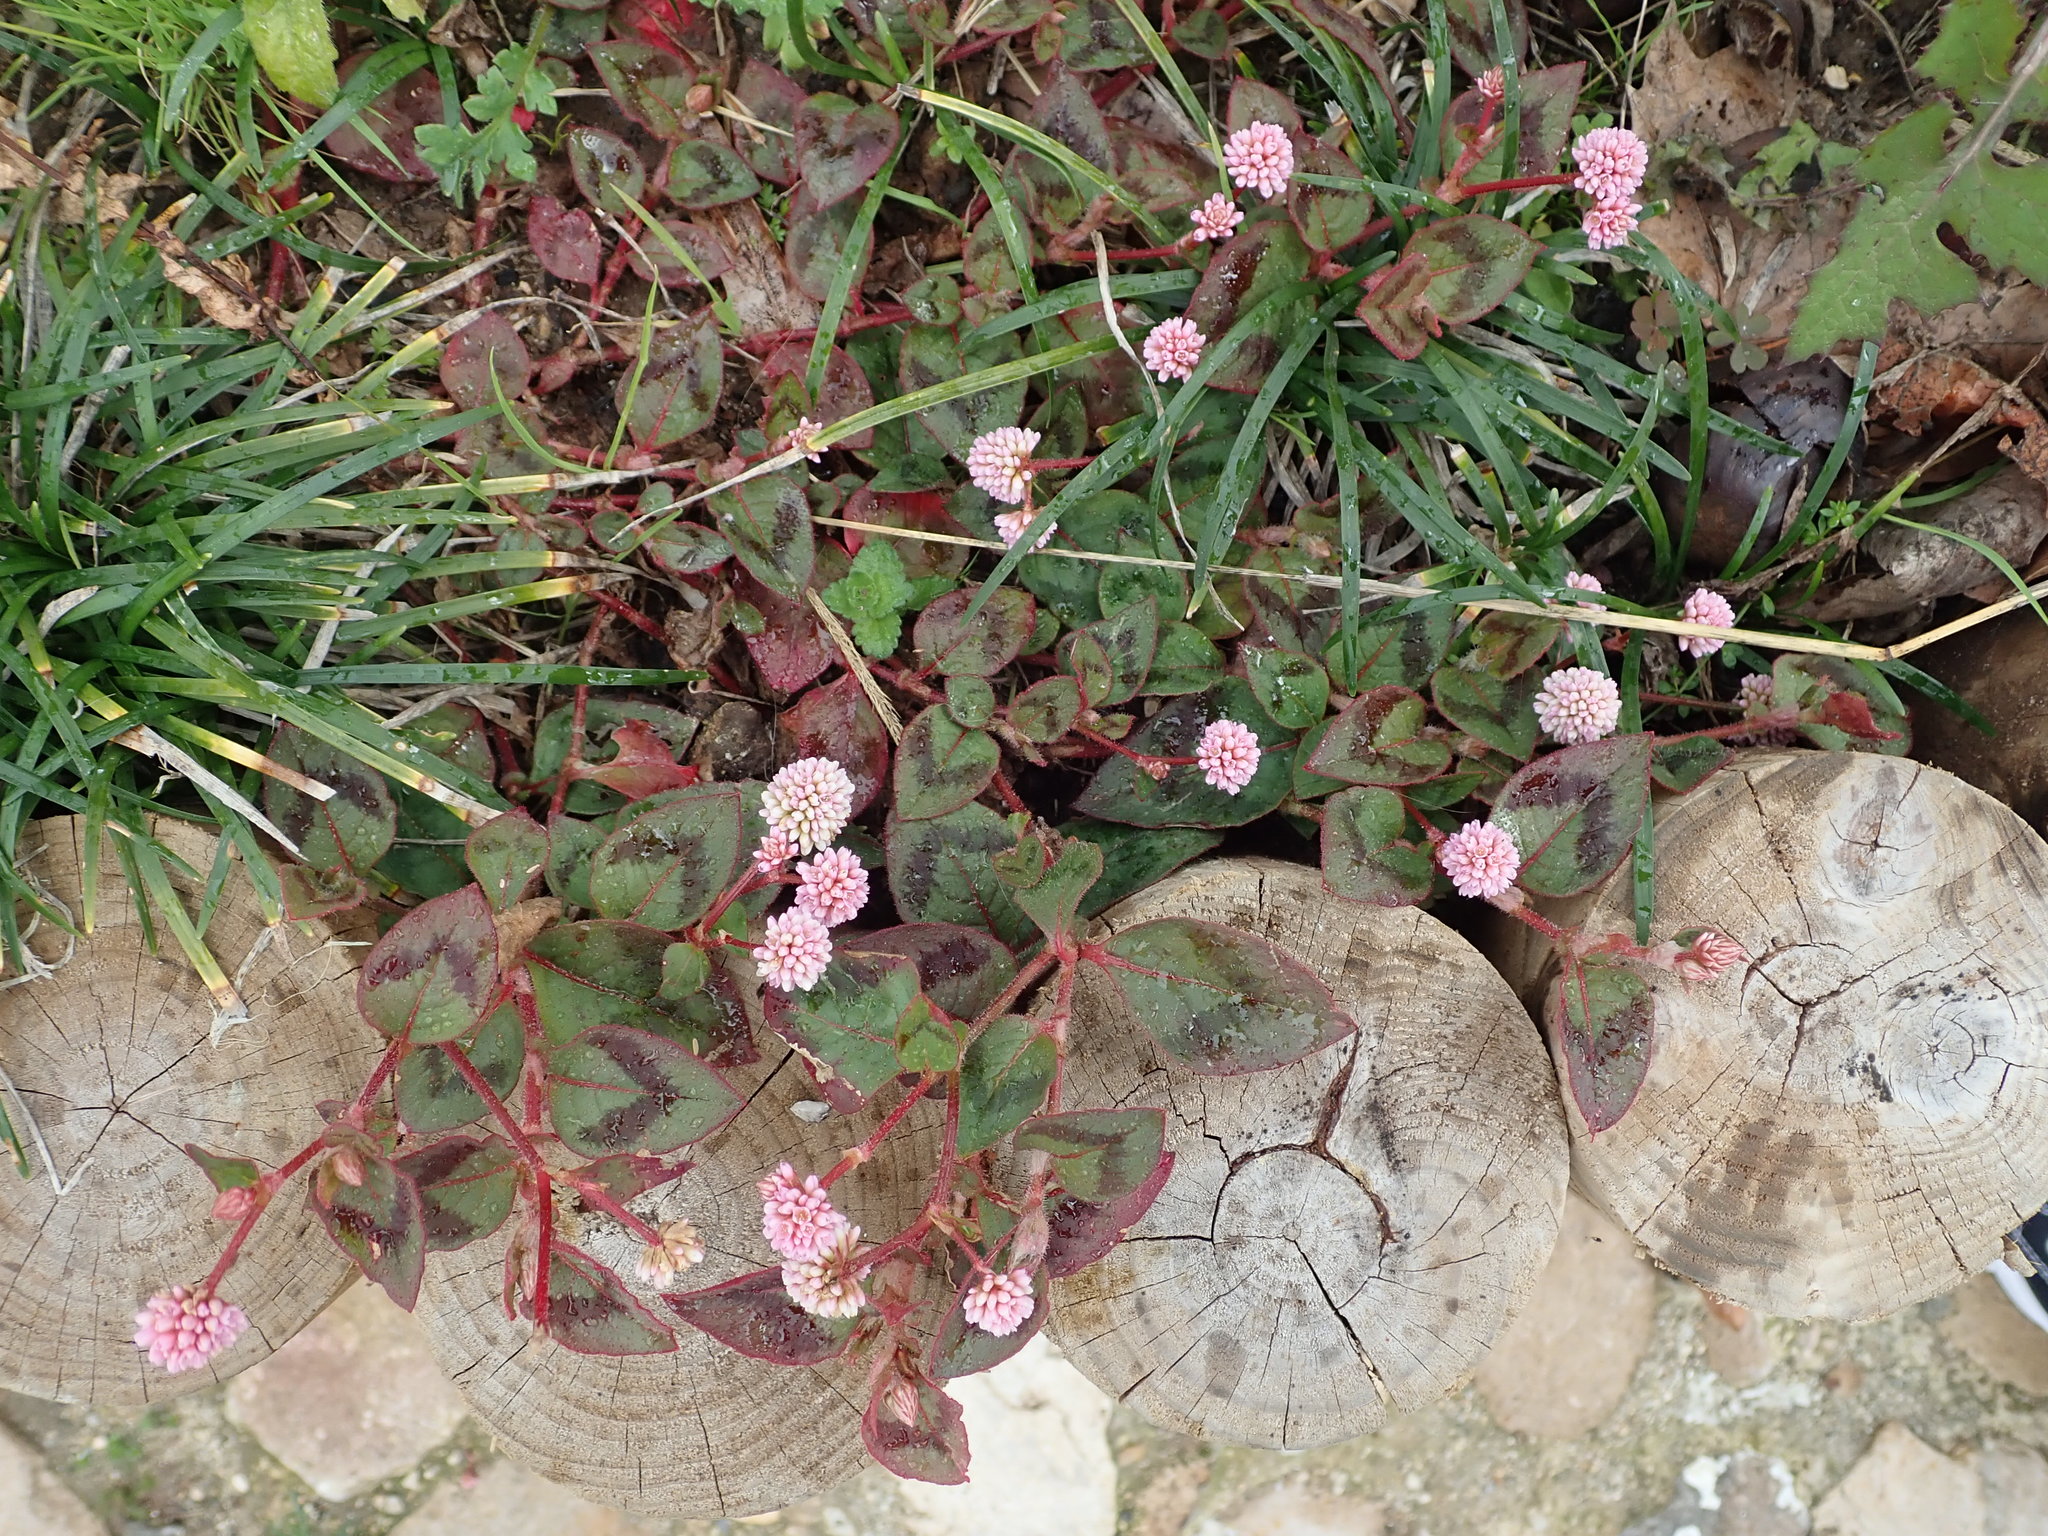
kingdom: Plantae
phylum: Tracheophyta
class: Magnoliopsida
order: Caryophyllales
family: Polygonaceae
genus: Persicaria
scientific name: Persicaria capitata
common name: Pinkhead smartweed
